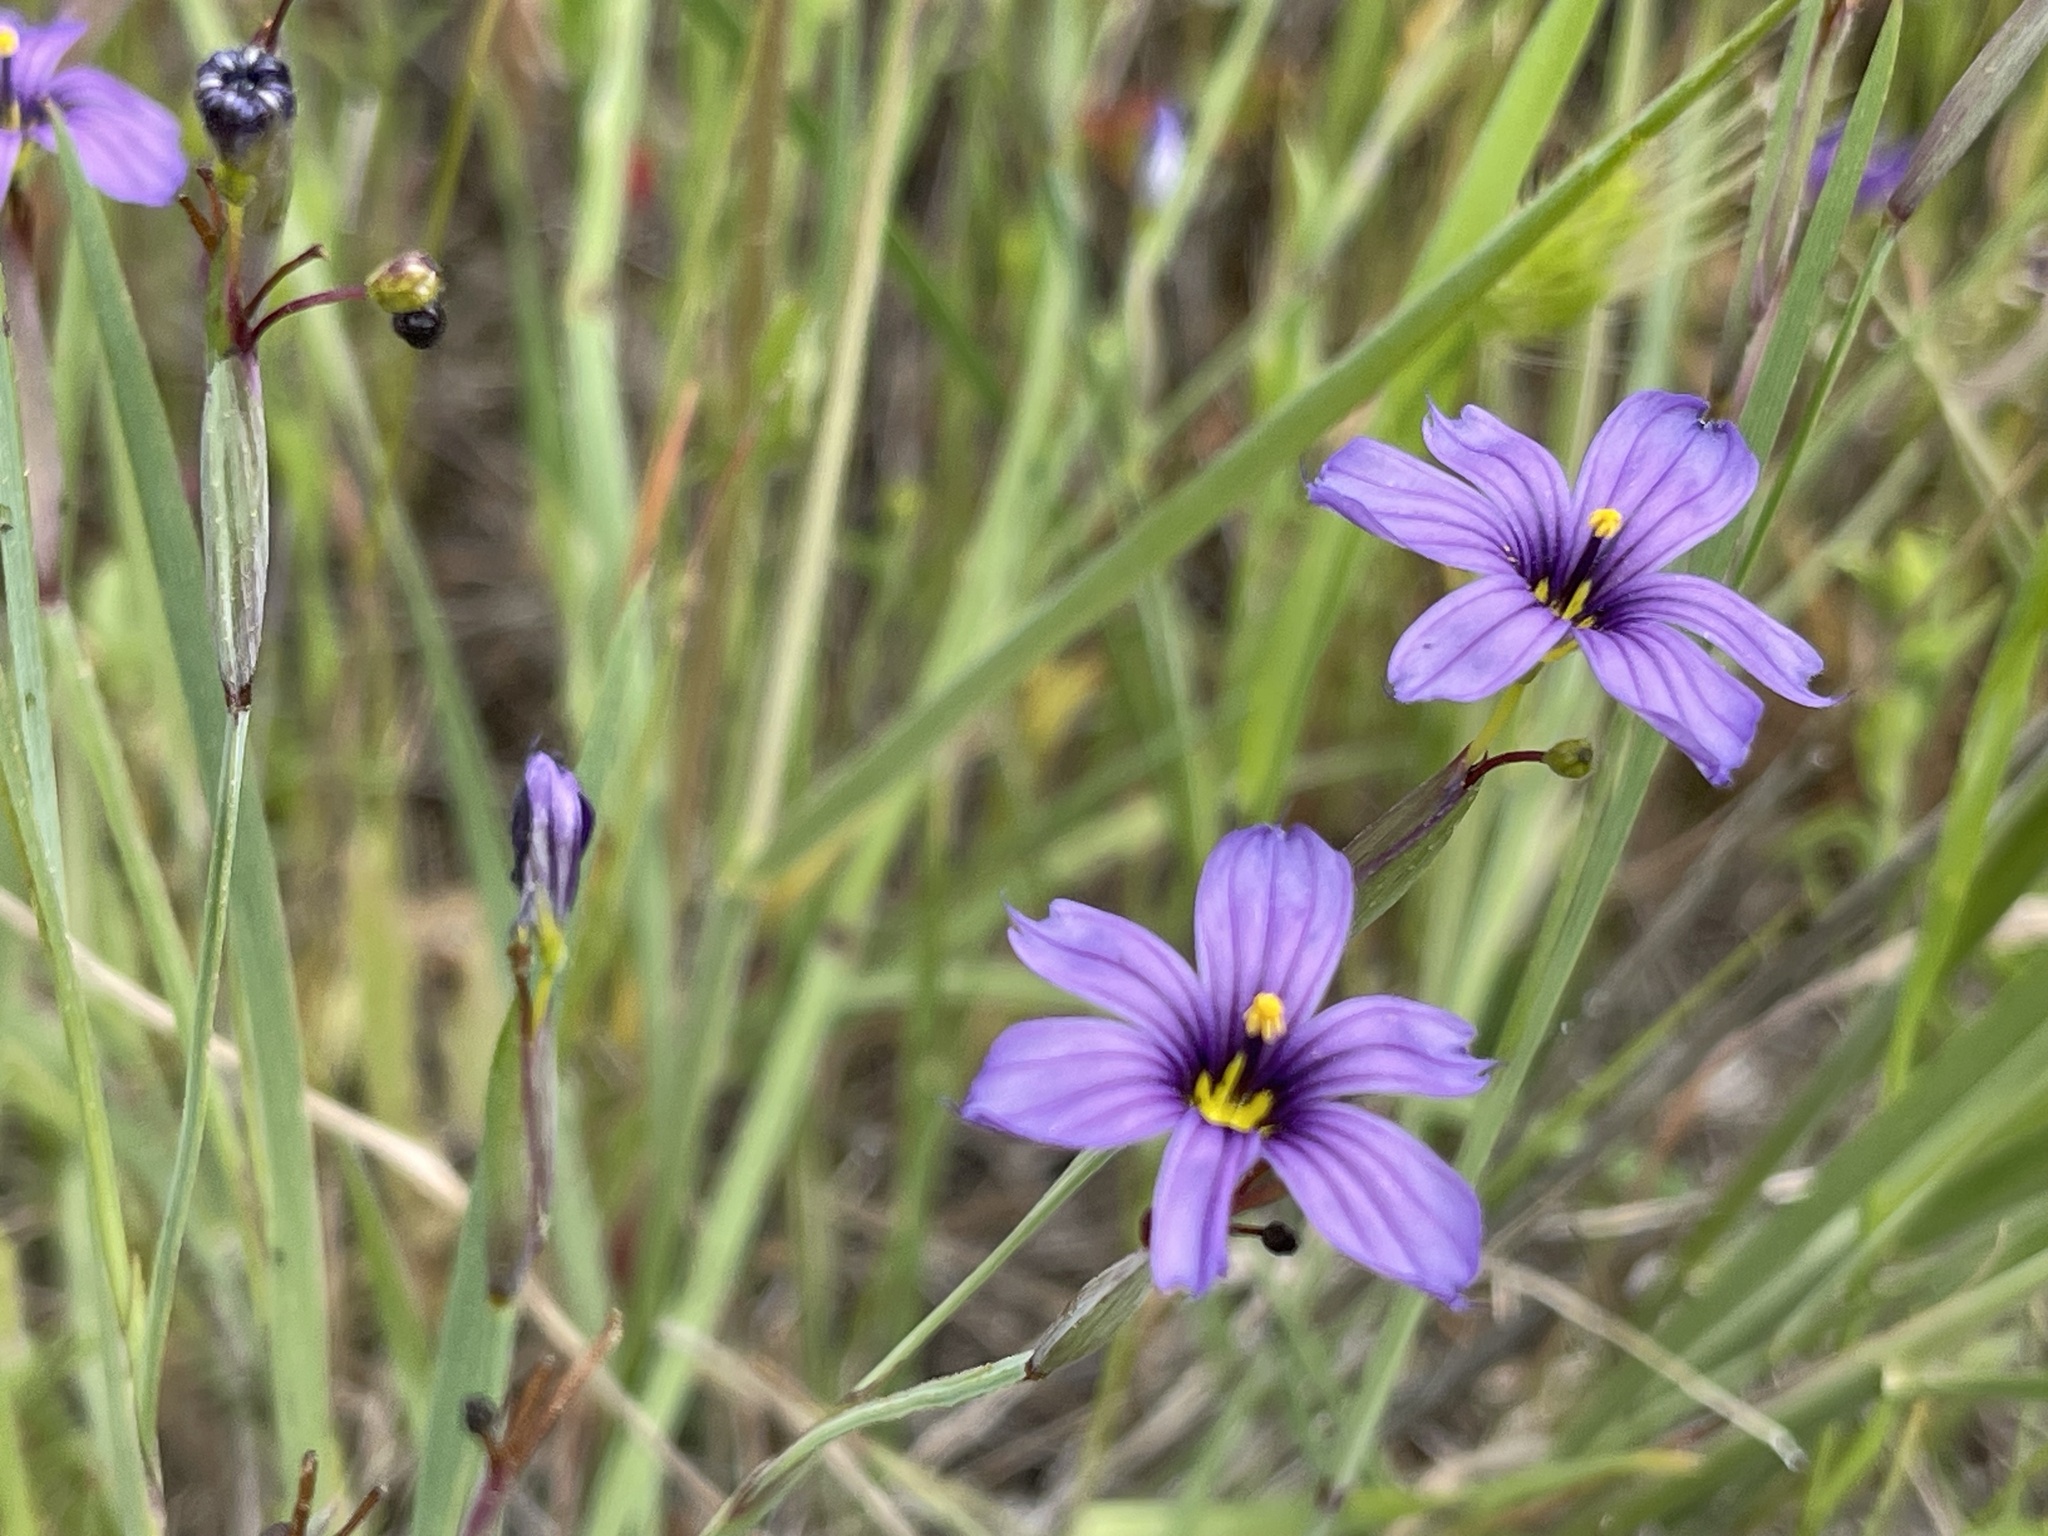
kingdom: Plantae
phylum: Tracheophyta
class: Liliopsida
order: Asparagales
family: Iridaceae
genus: Sisyrinchium
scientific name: Sisyrinchium bellum
